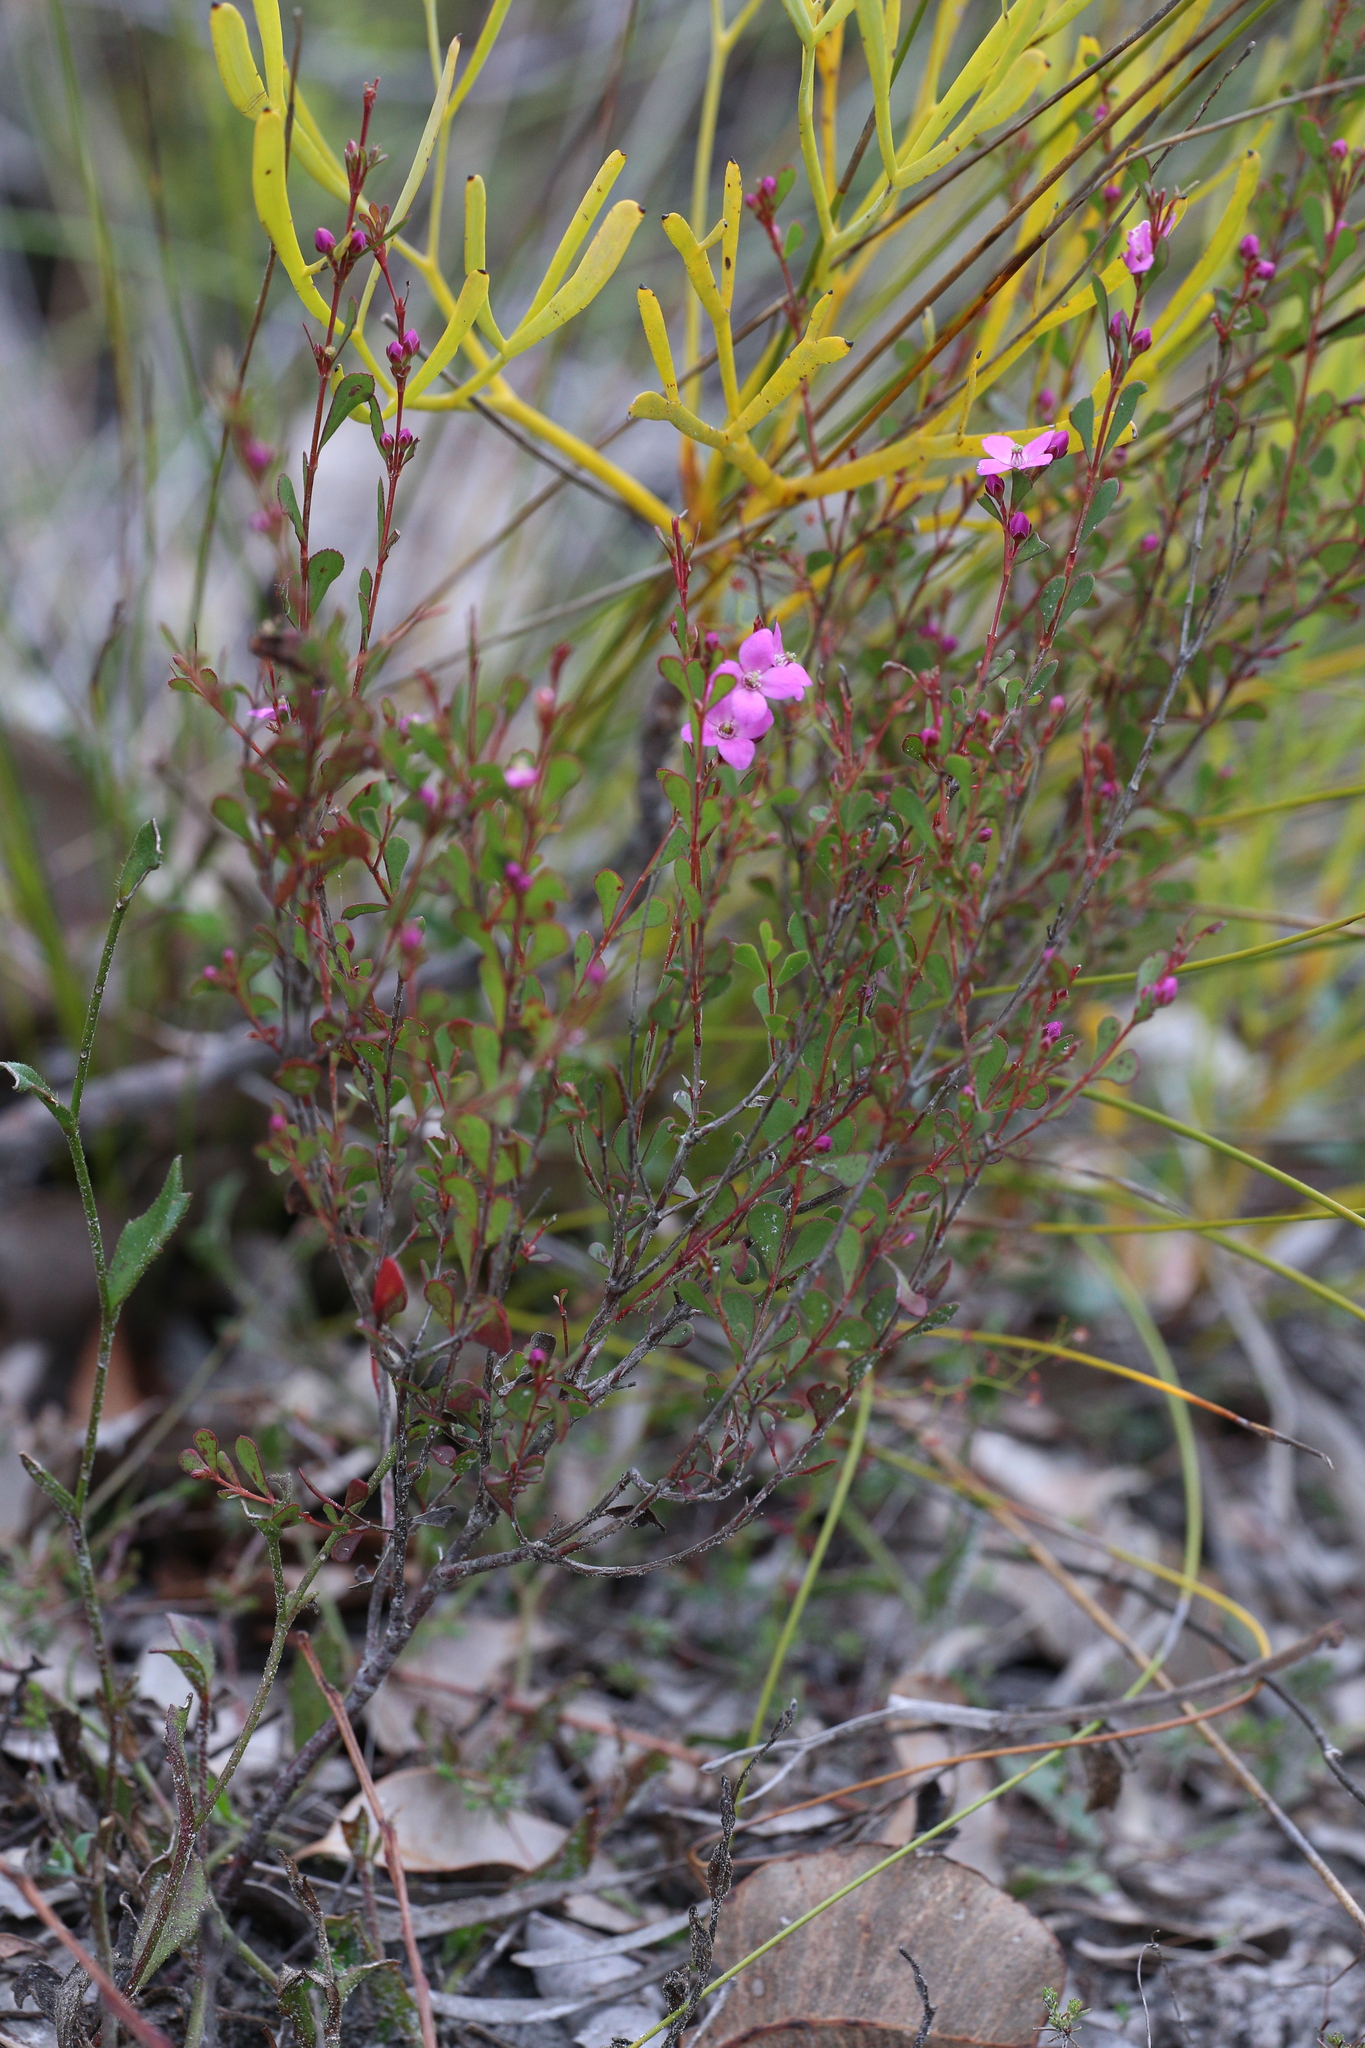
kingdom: Plantae
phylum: Tracheophyta
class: Magnoliopsida
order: Sapindales
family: Rutaceae
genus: Boronia
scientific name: Boronia crenulata
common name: Aniseed boronia
